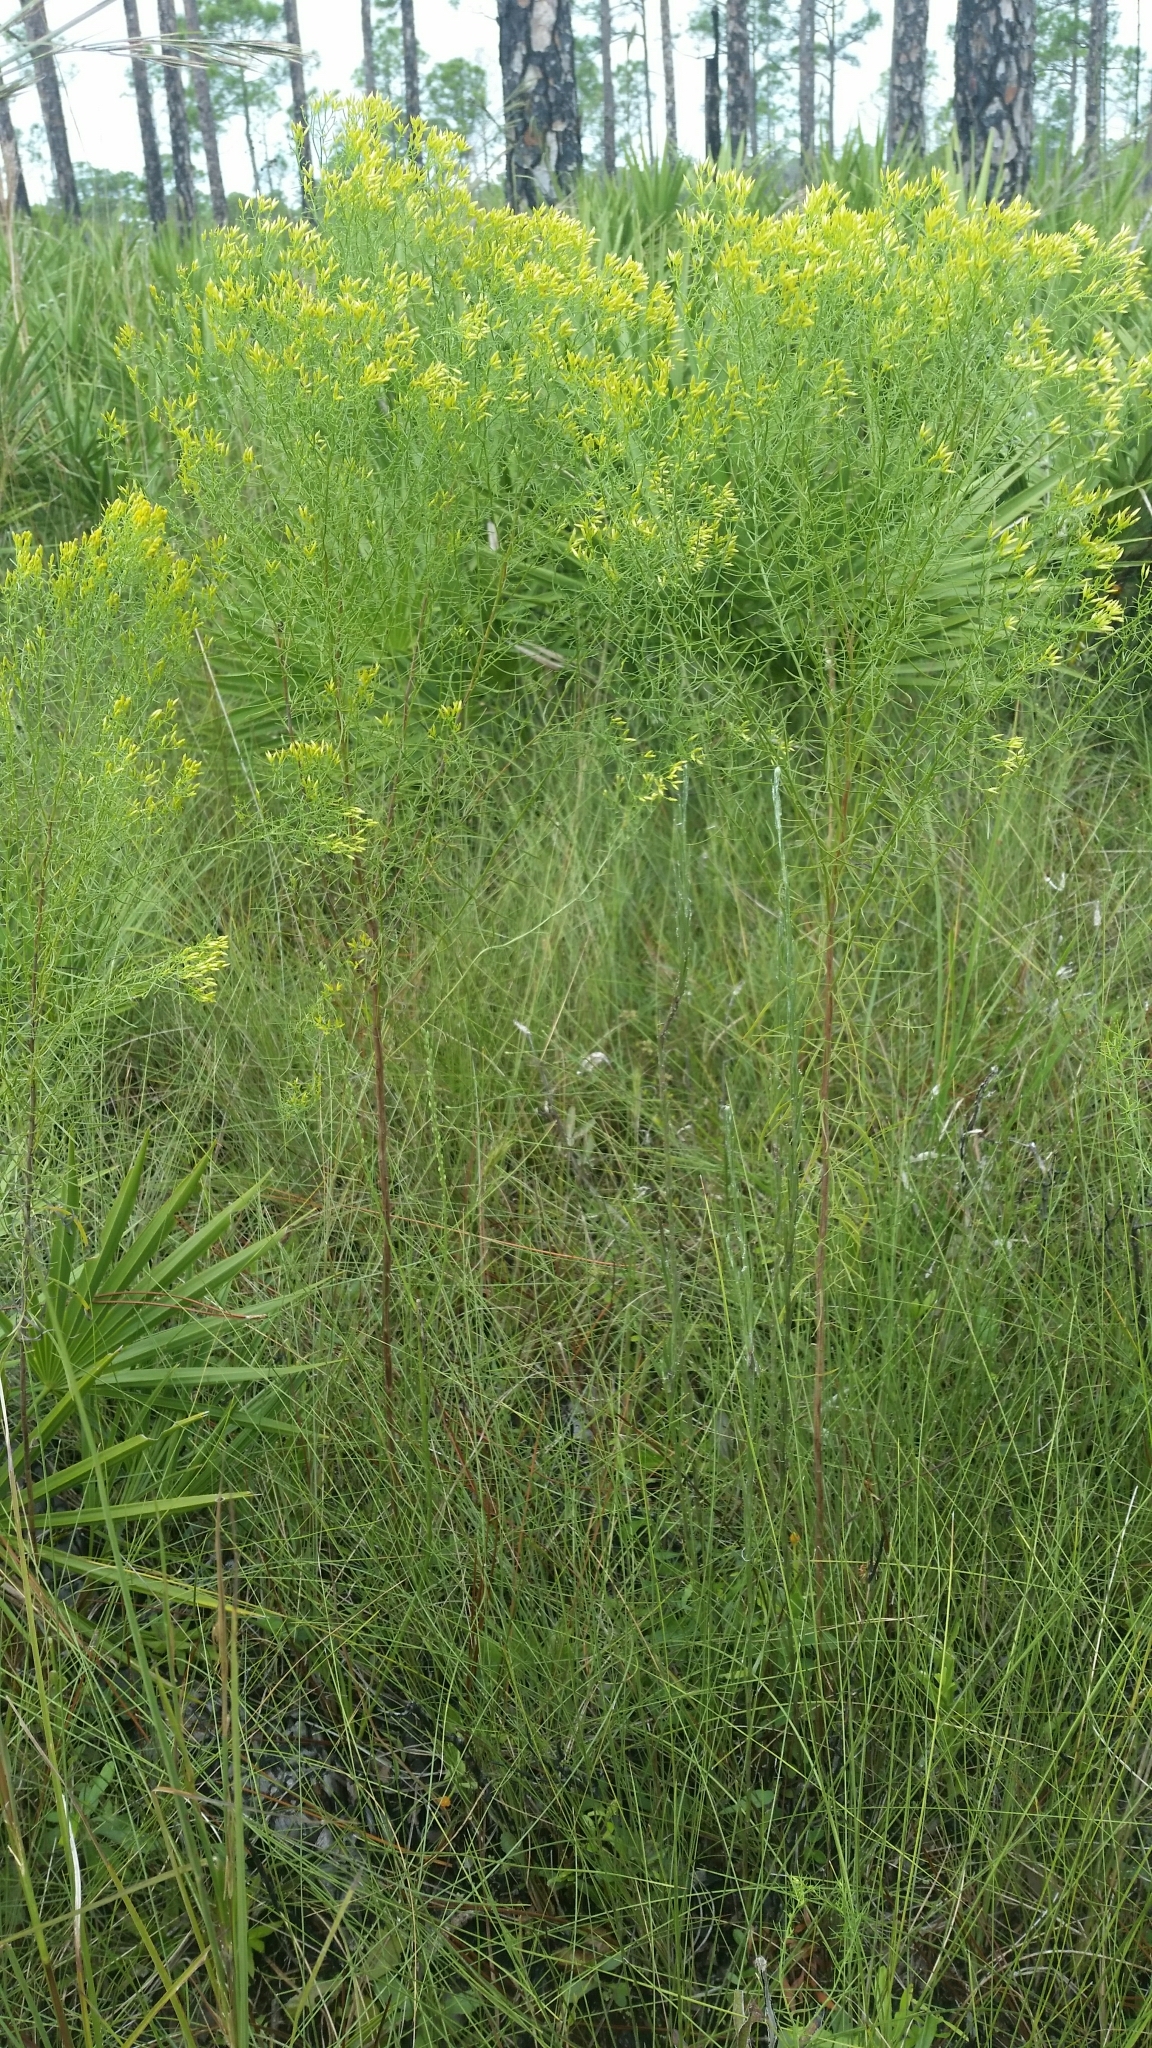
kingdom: Plantae
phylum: Tracheophyta
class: Magnoliopsida
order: Asterales
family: Asteraceae
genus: Euthamia
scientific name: Euthamia caroliniana
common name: Coastal plain goldentop
